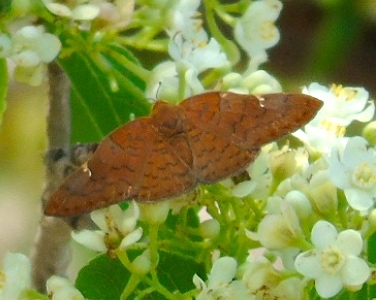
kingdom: Animalia
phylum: Arthropoda
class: Insecta
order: Lepidoptera
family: Riodinidae
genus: Curvie
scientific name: Curvie emesia
